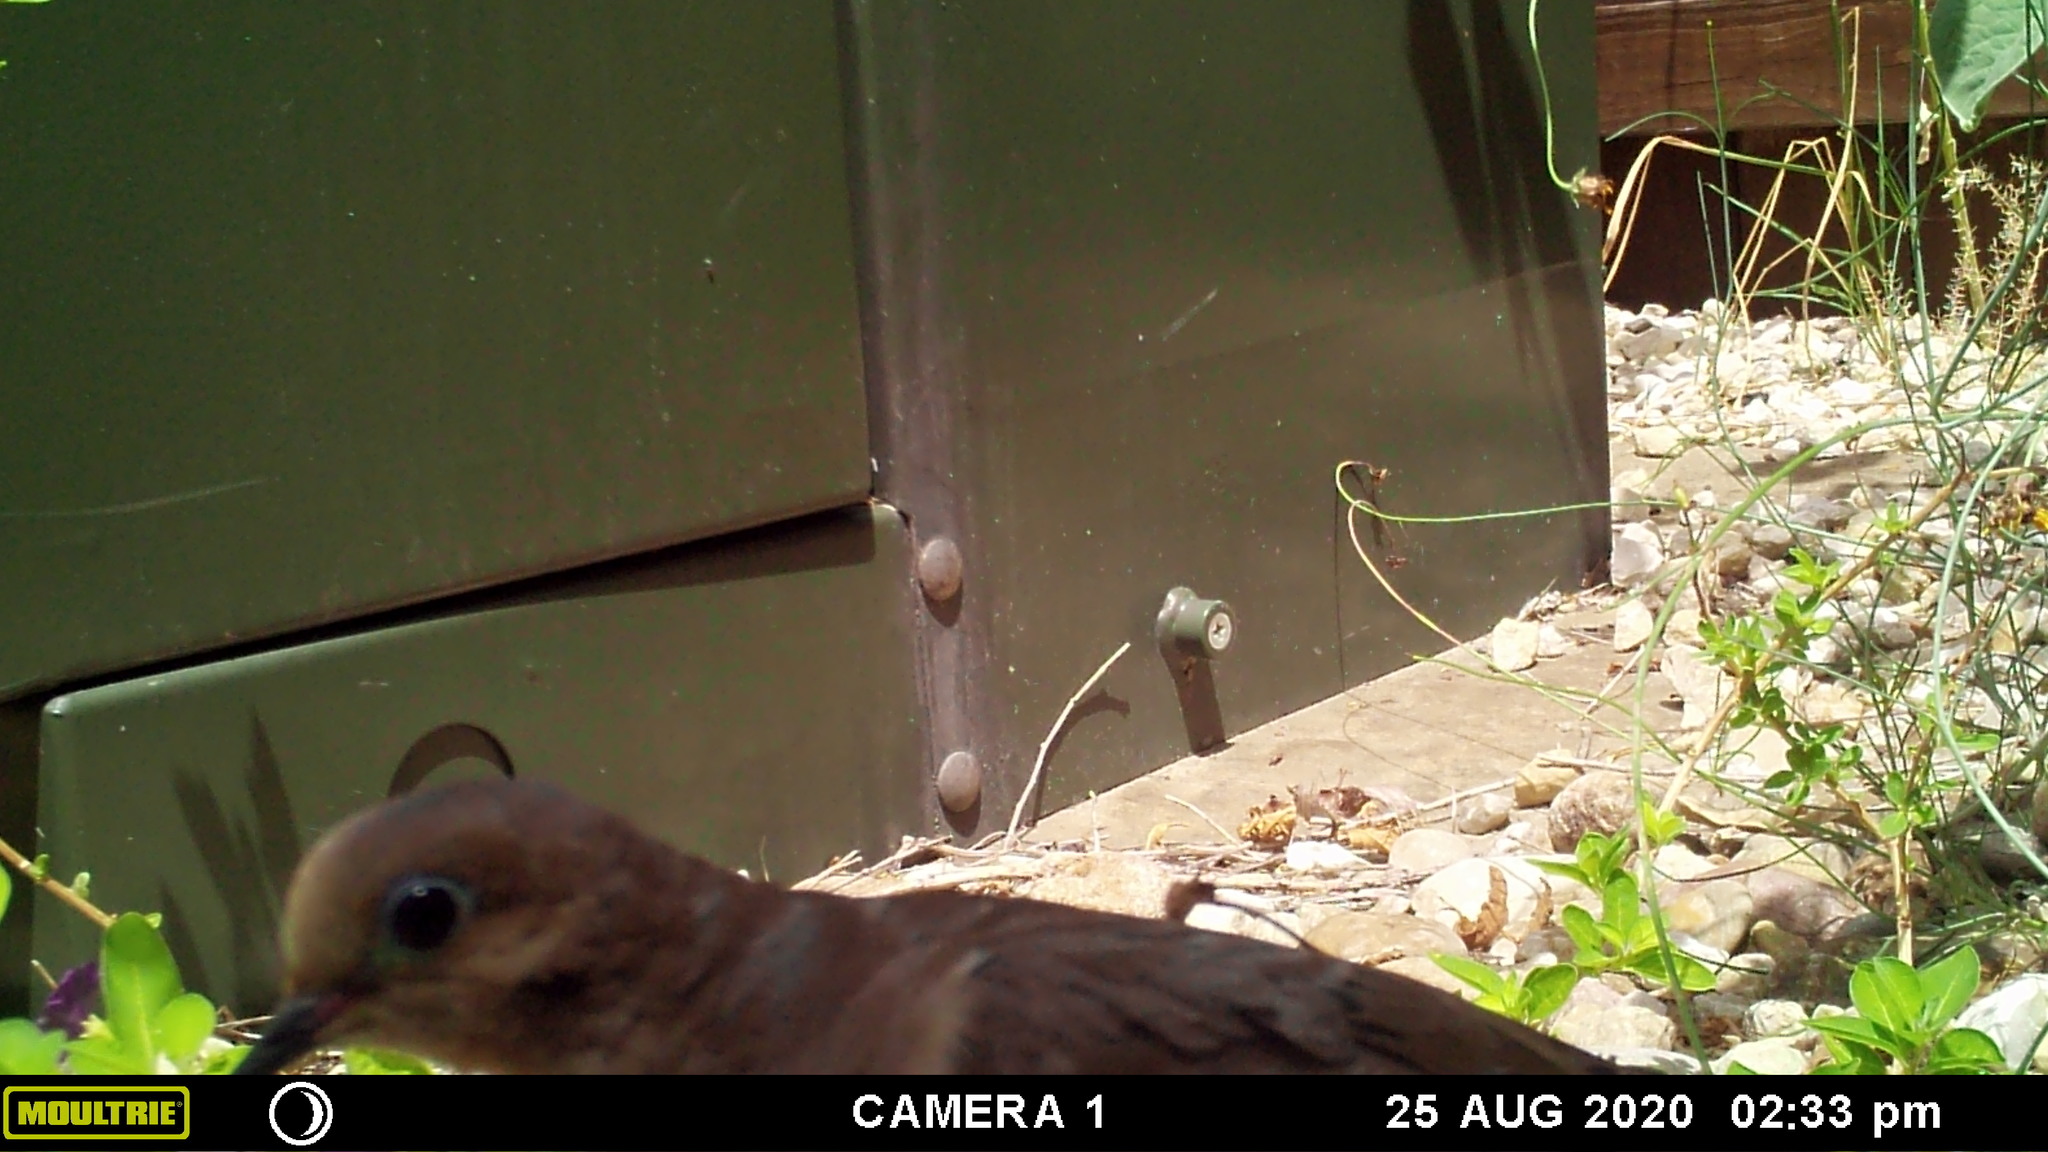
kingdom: Animalia
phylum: Chordata
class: Aves
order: Columbiformes
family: Columbidae
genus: Zenaida
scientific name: Zenaida macroura
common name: Mourning dove
